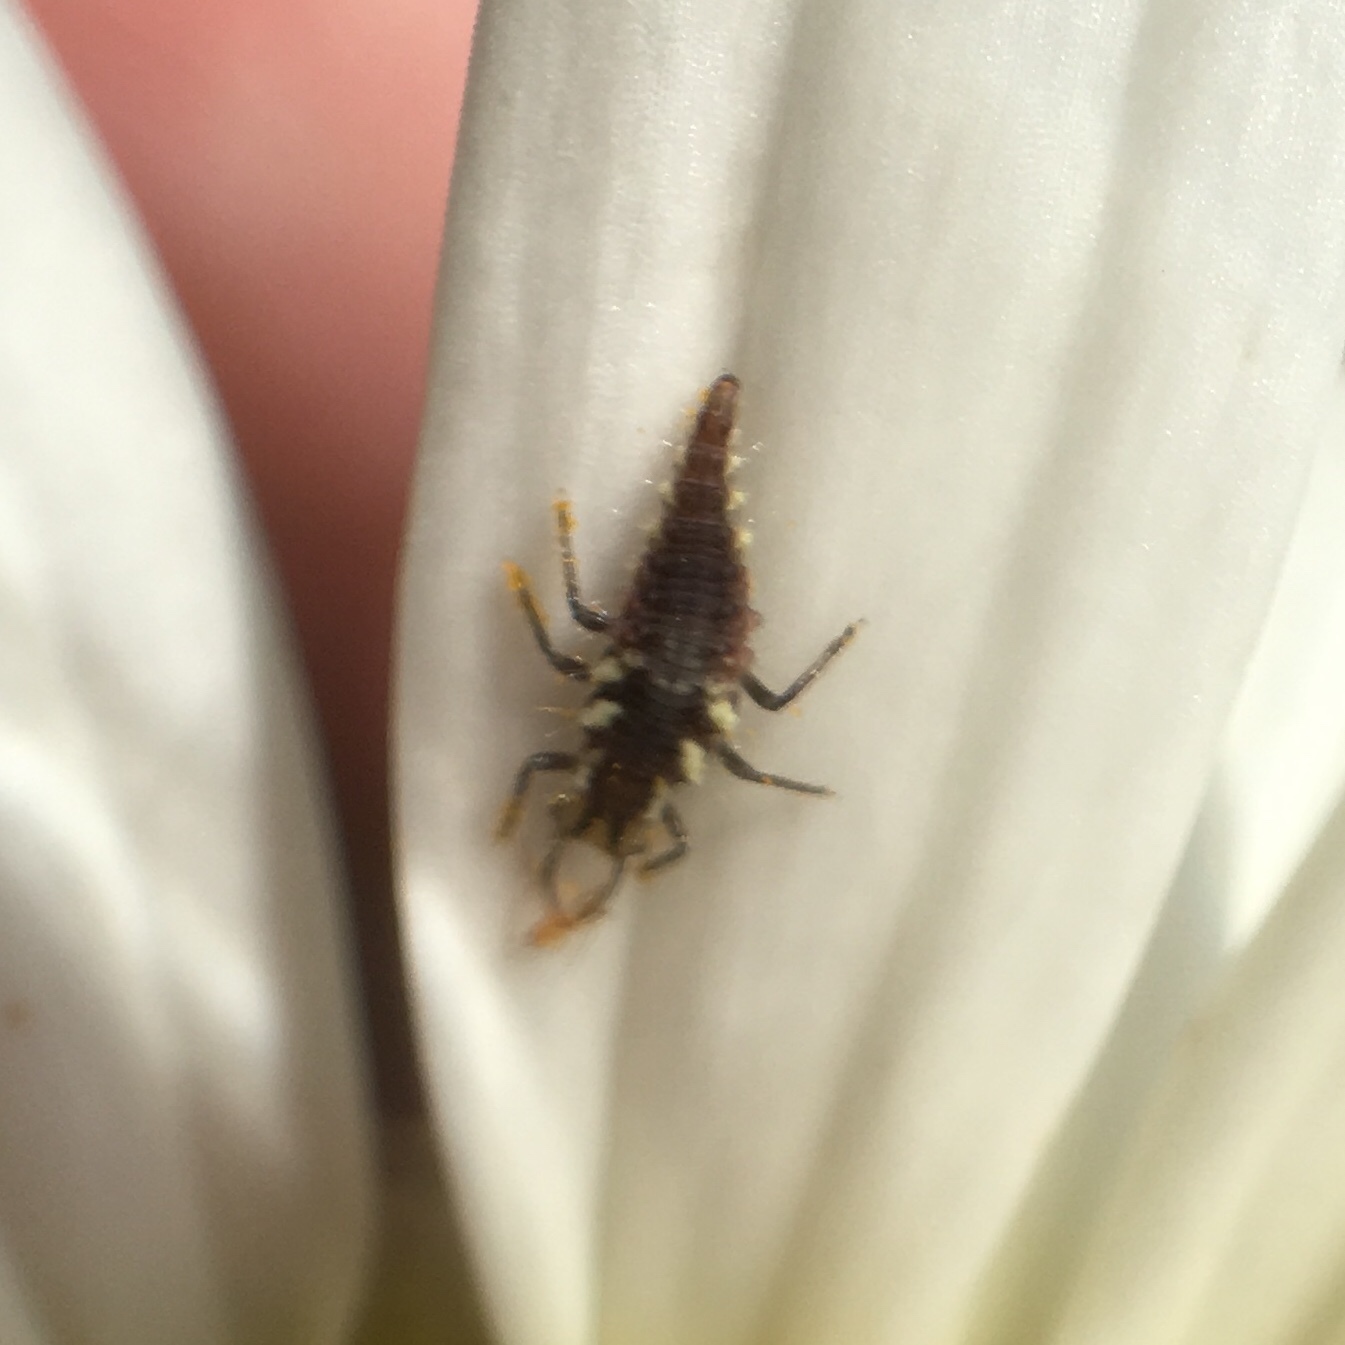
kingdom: Animalia
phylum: Arthropoda
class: Insecta
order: Neuroptera
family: Chrysopidae
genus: Chrysoperla
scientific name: Chrysoperla rufilabris
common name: Red-lipped green lacewing
